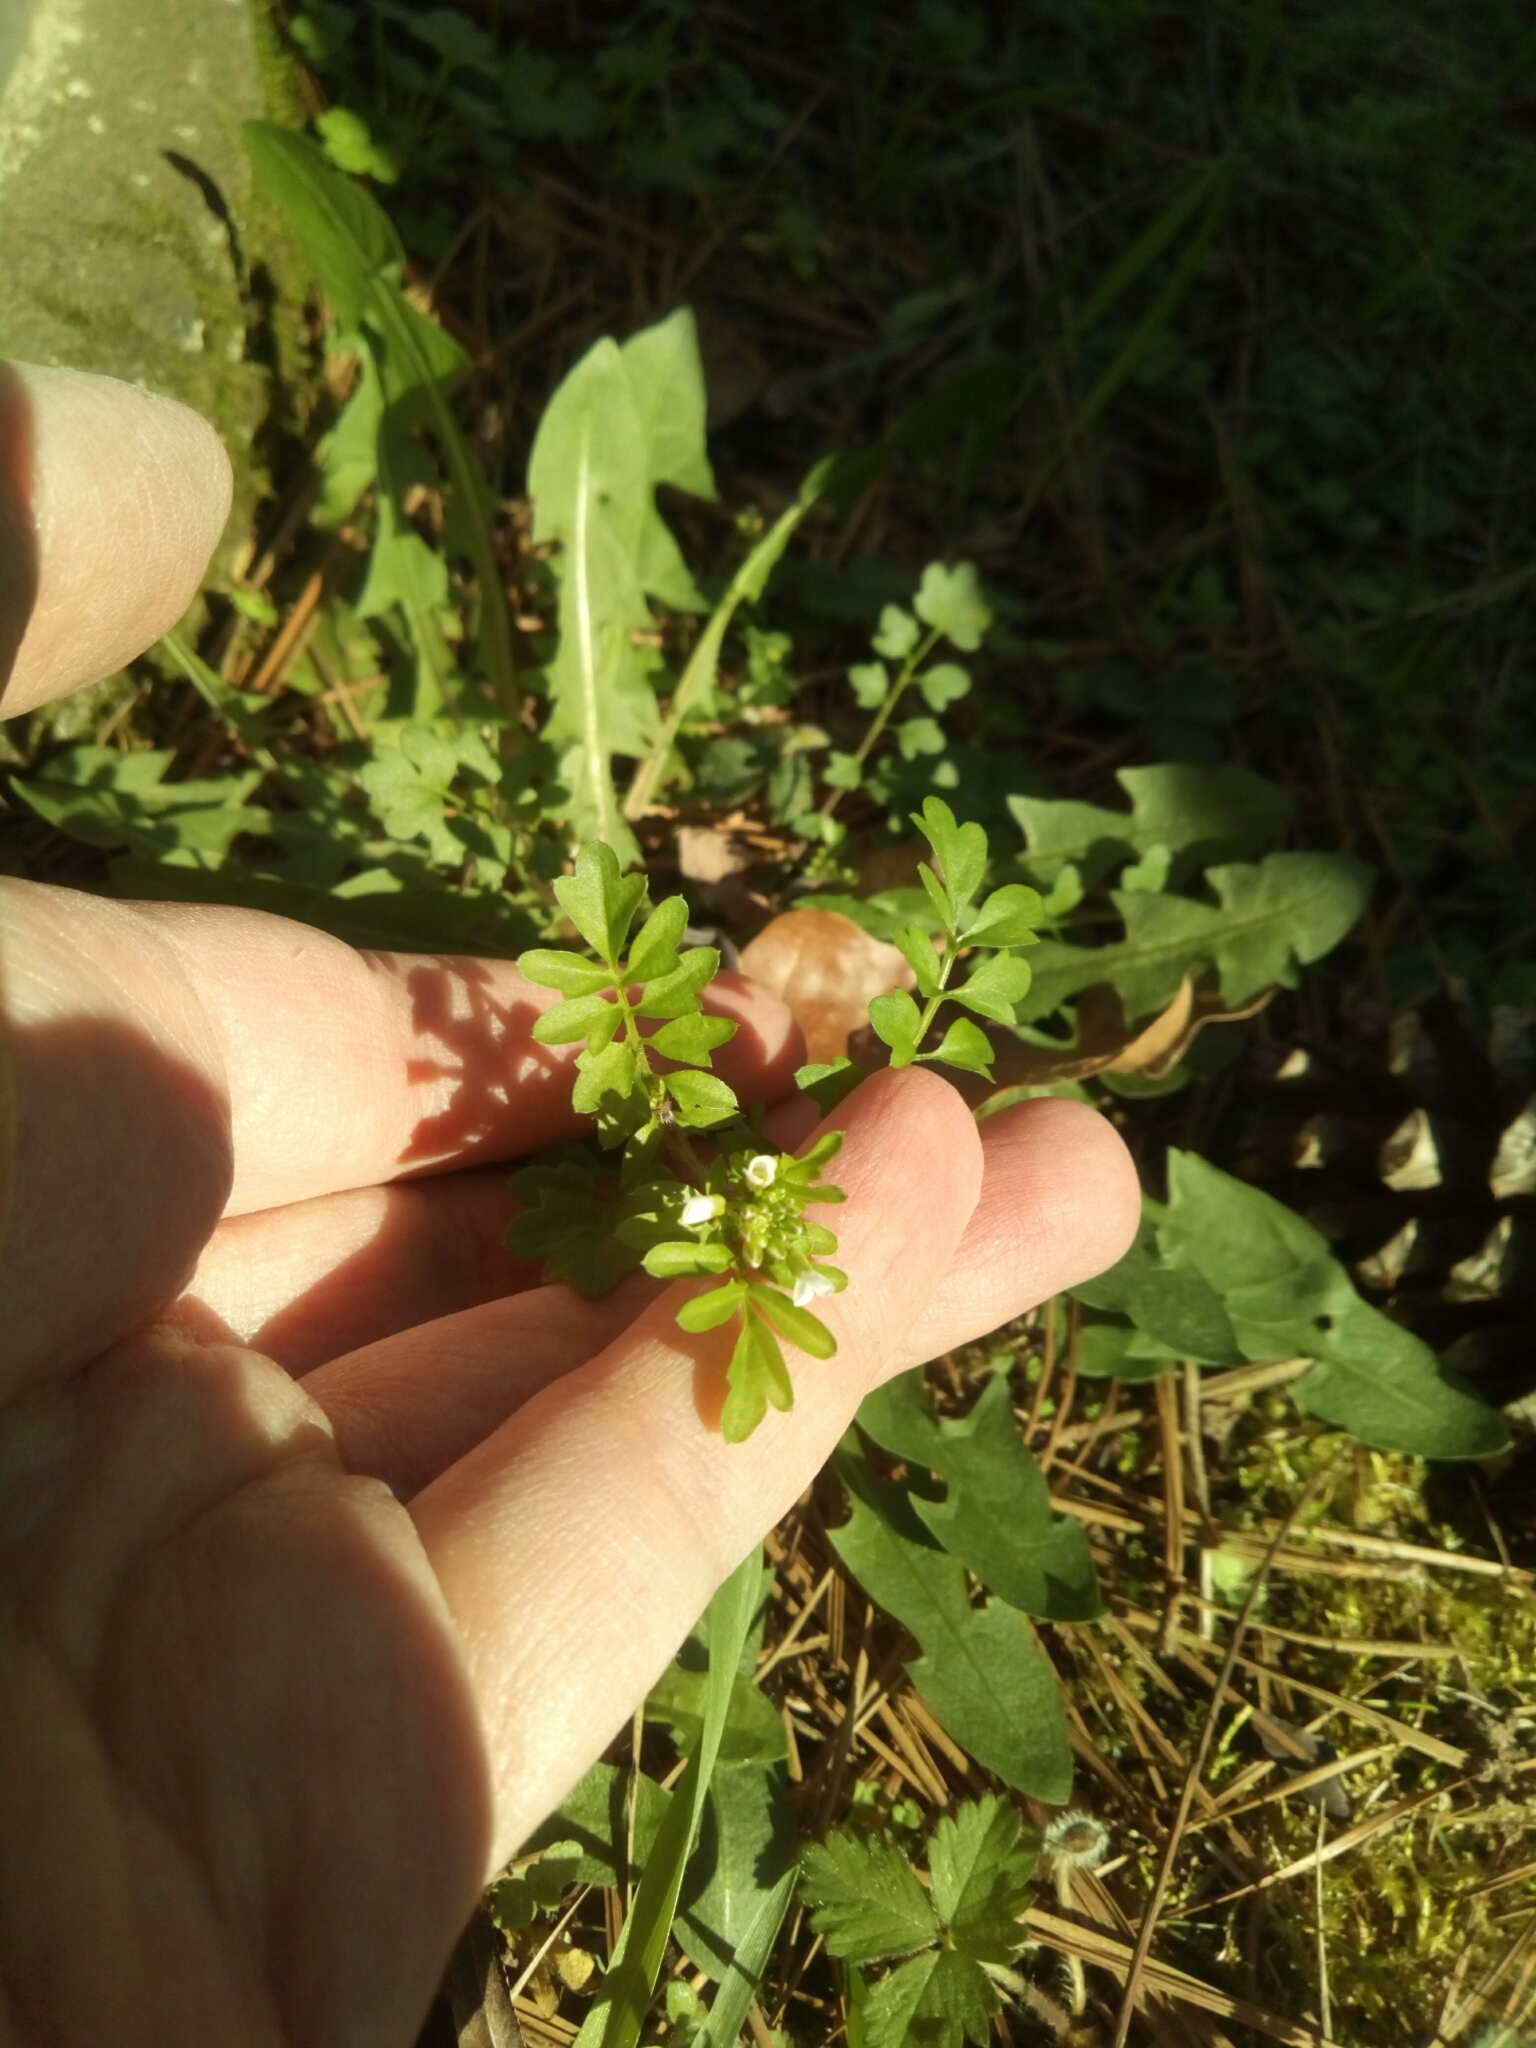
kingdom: Plantae
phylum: Tracheophyta
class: Magnoliopsida
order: Brassicales
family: Brassicaceae
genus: Cardamine
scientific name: Cardamine occulta
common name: Asian wavy bittercress
